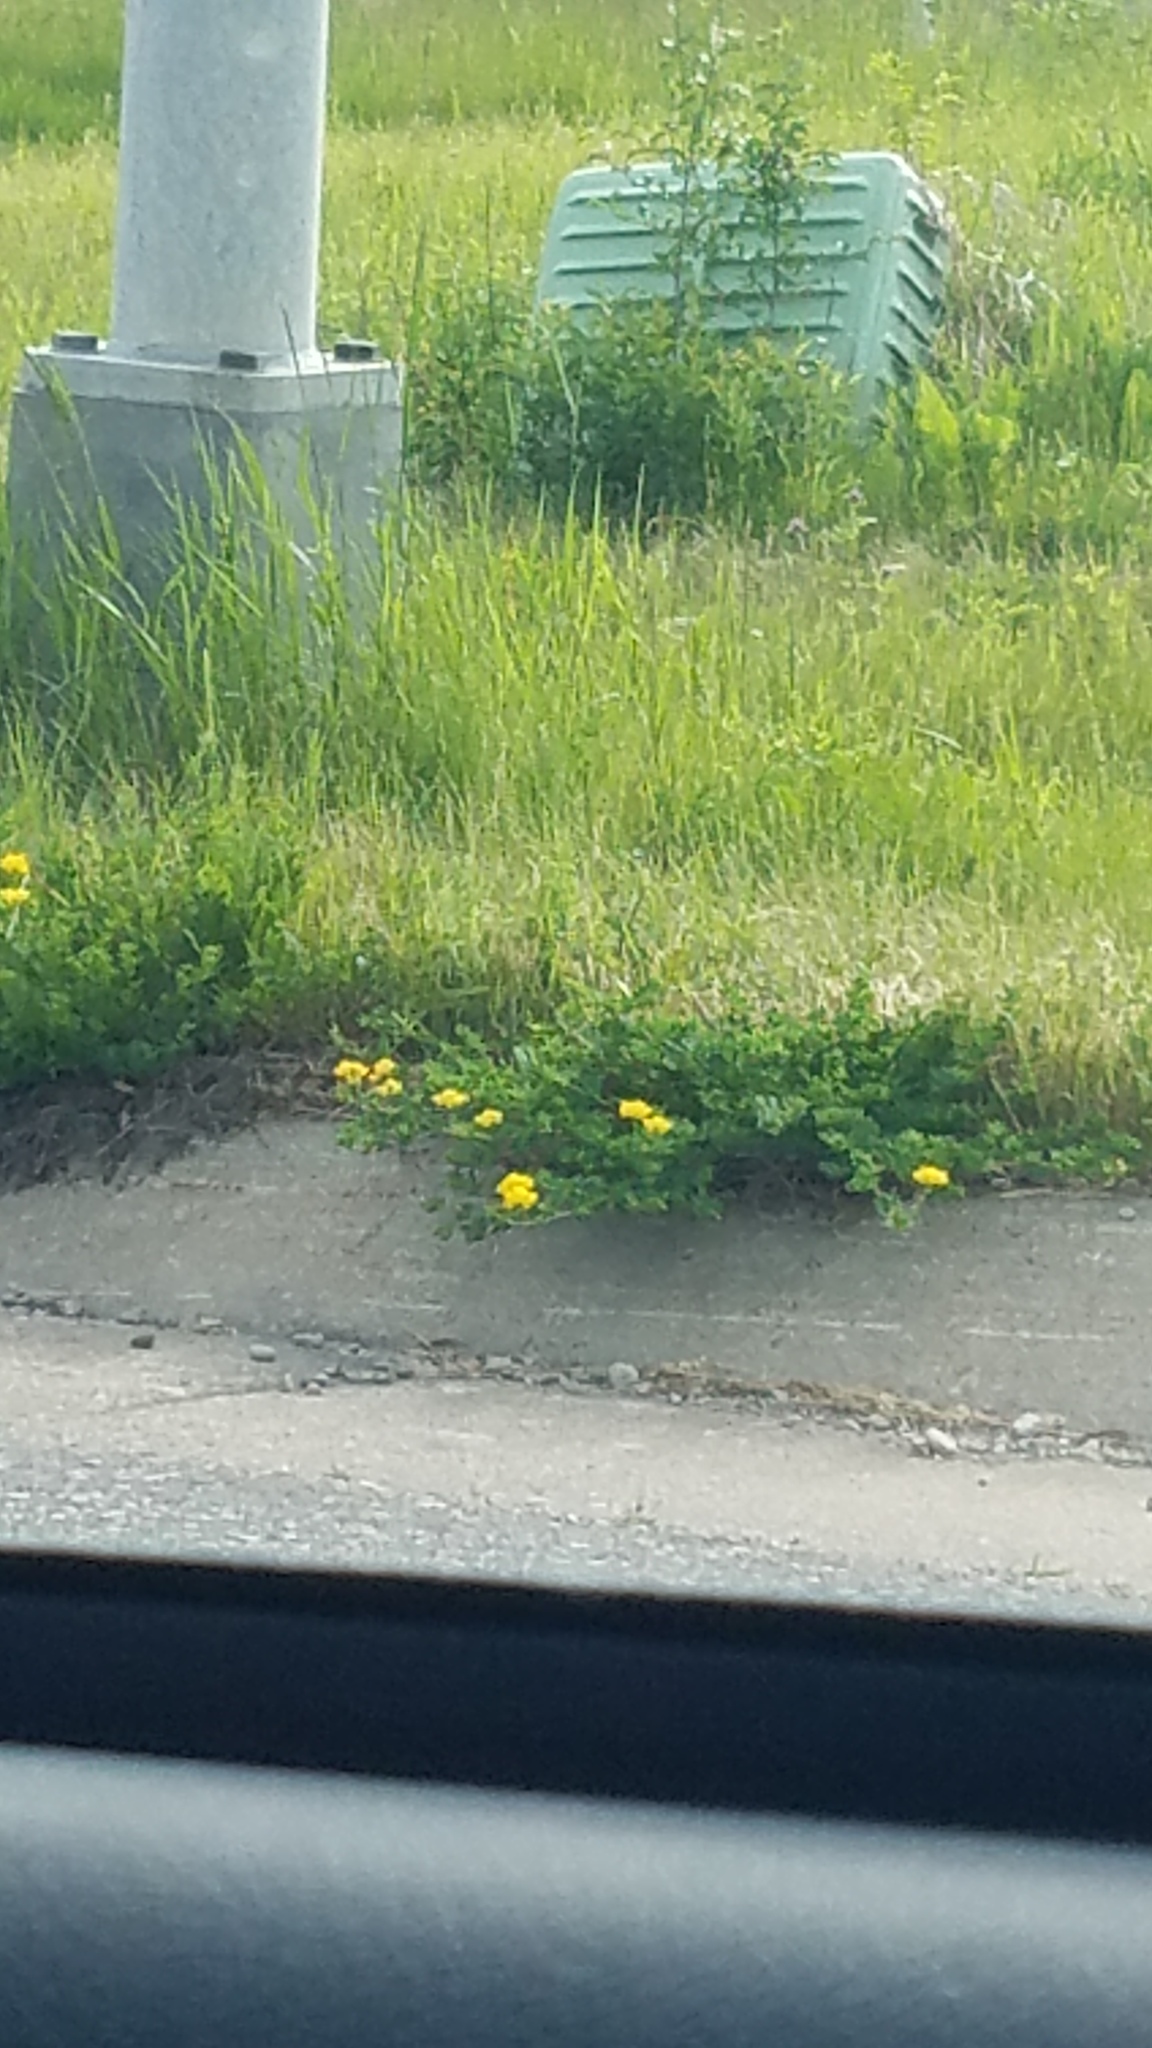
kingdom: Plantae
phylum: Tracheophyta
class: Magnoliopsida
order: Fabales
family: Fabaceae
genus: Lotus
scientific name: Lotus corniculatus
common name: Common bird's-foot-trefoil
